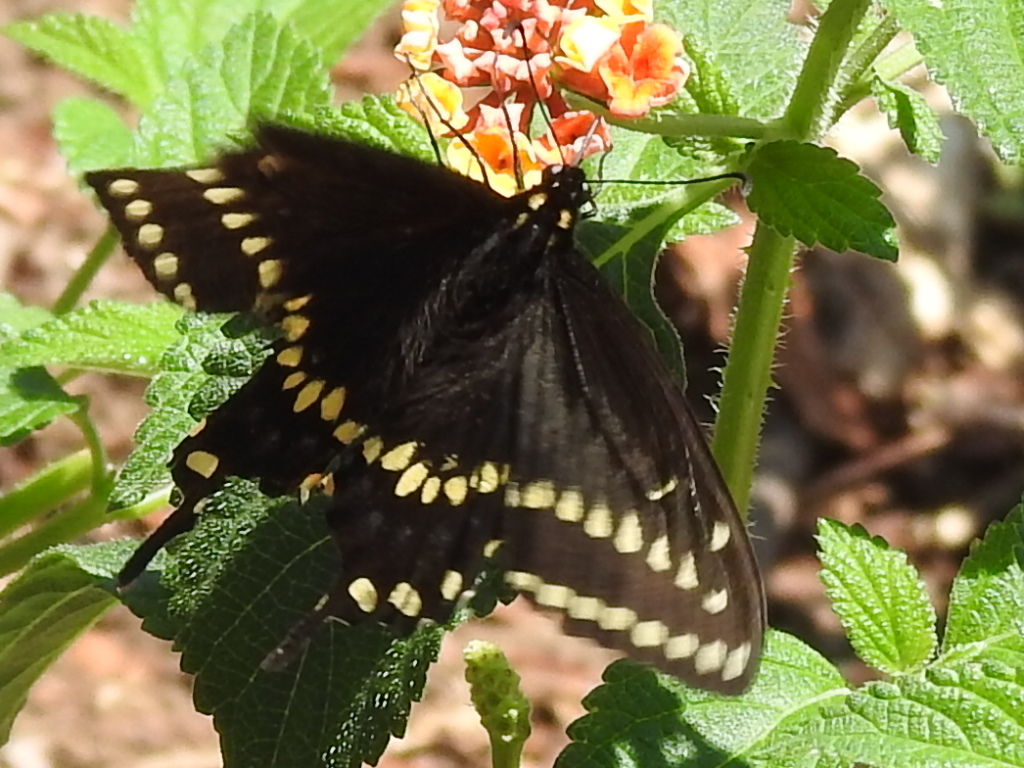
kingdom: Animalia
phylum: Arthropoda
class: Insecta
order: Lepidoptera
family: Papilionidae
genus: Papilio
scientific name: Papilio polyxenes
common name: Black swallowtail
